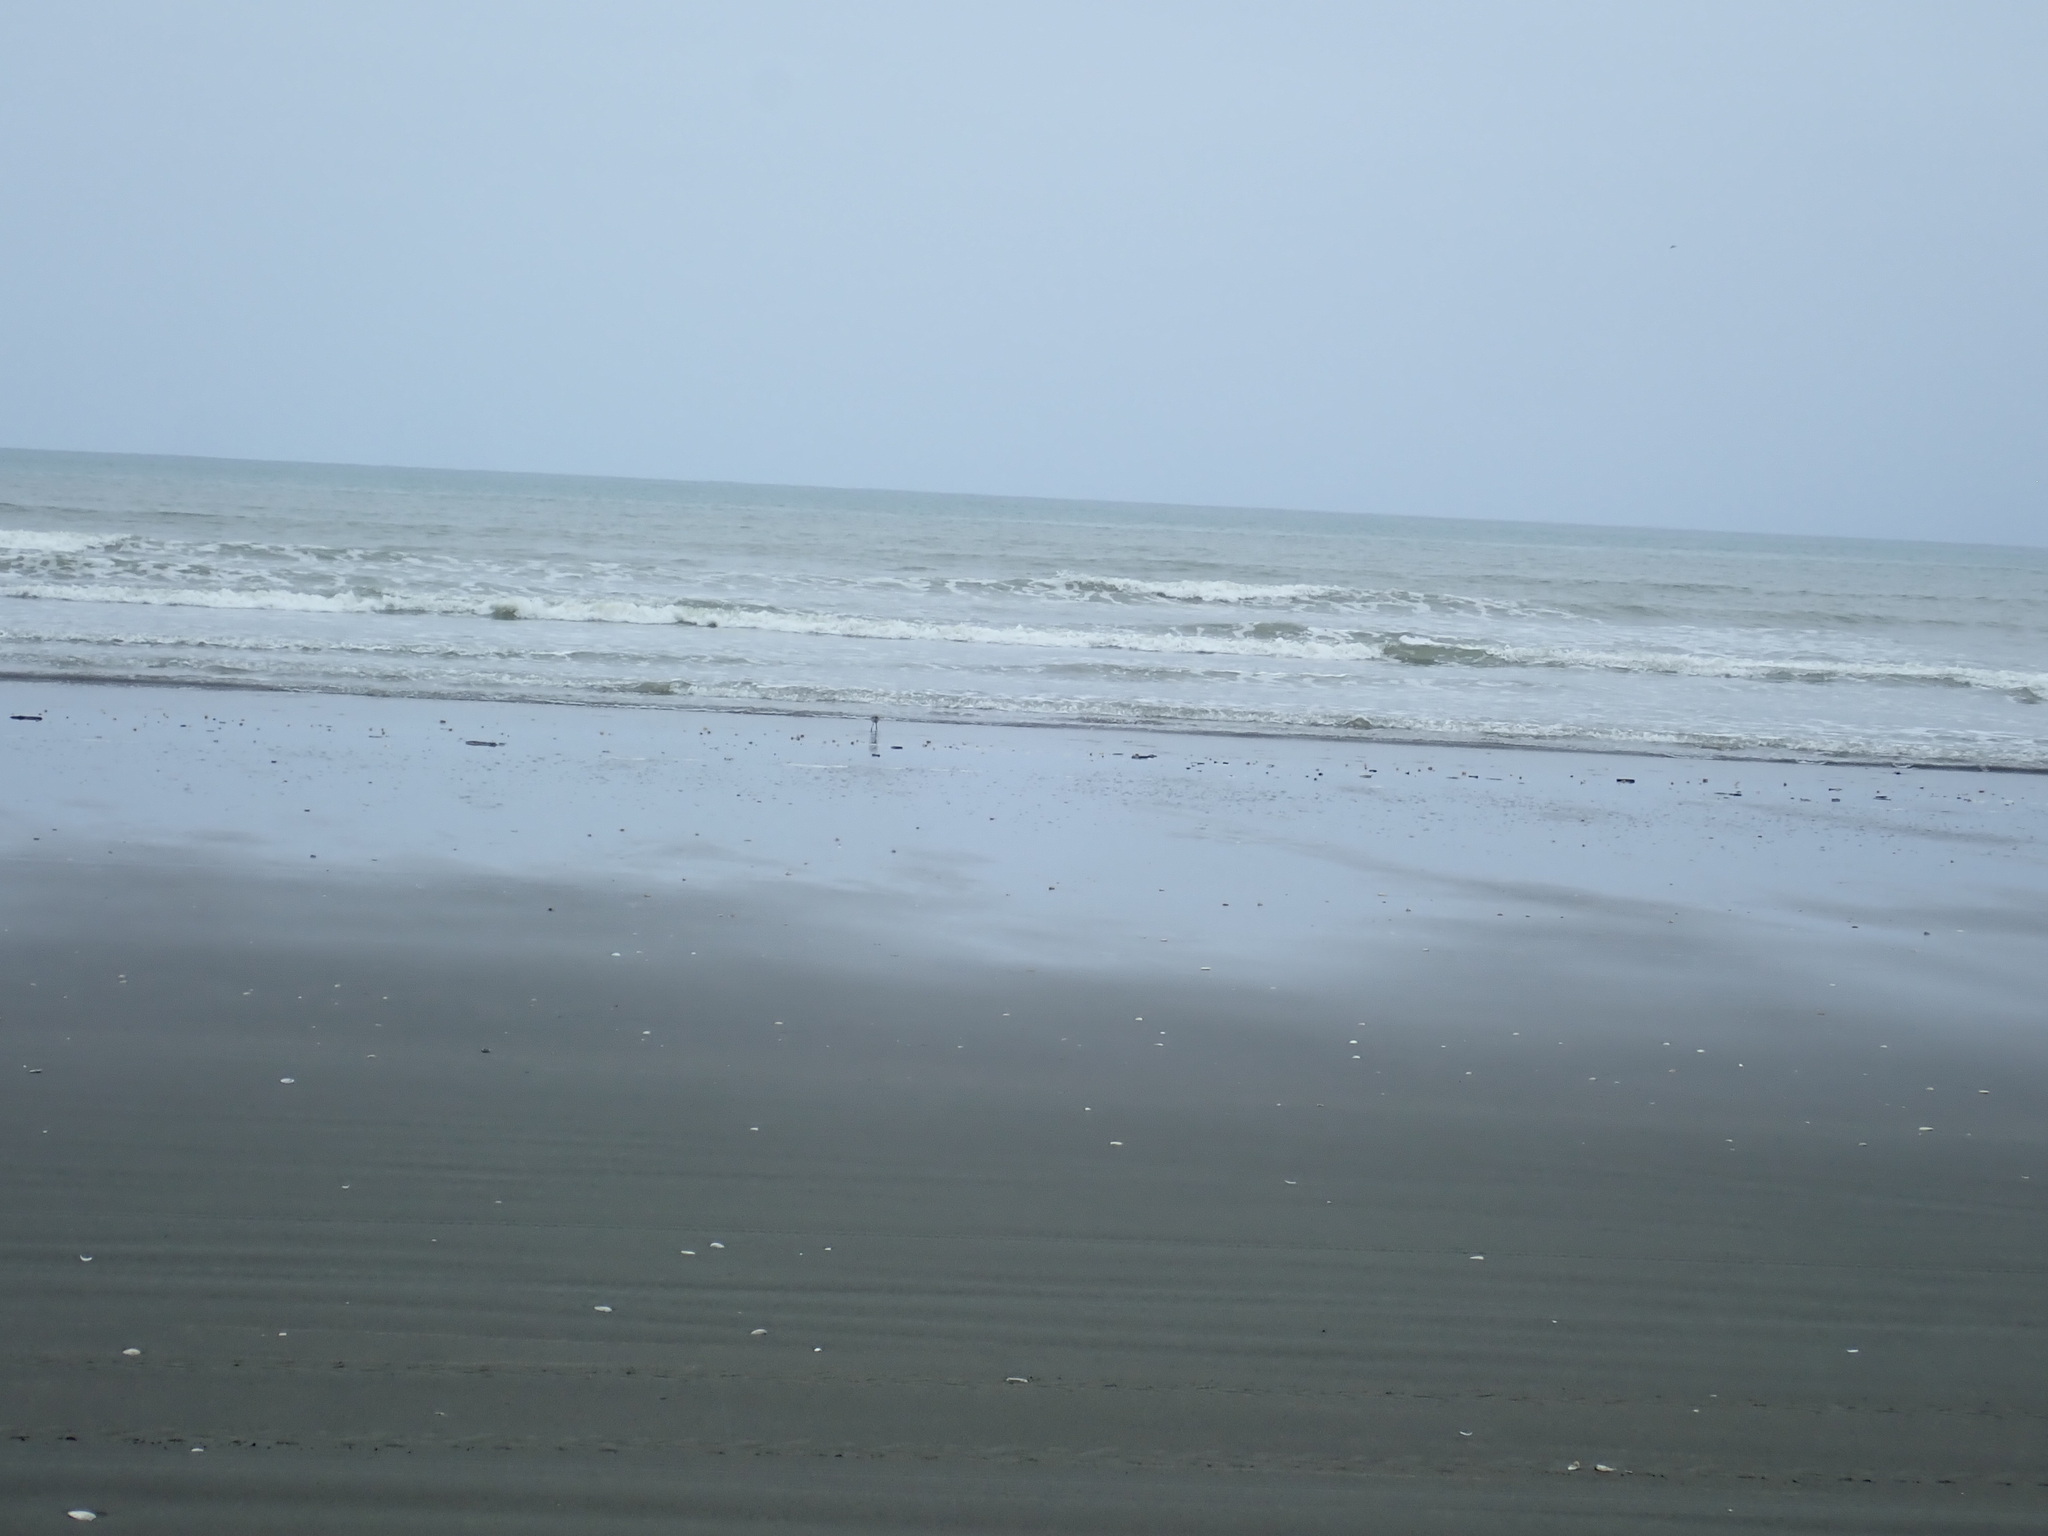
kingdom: Animalia
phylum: Chordata
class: Aves
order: Charadriiformes
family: Scolopacidae
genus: Limosa
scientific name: Limosa lapponica
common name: Bar-tailed godwit
